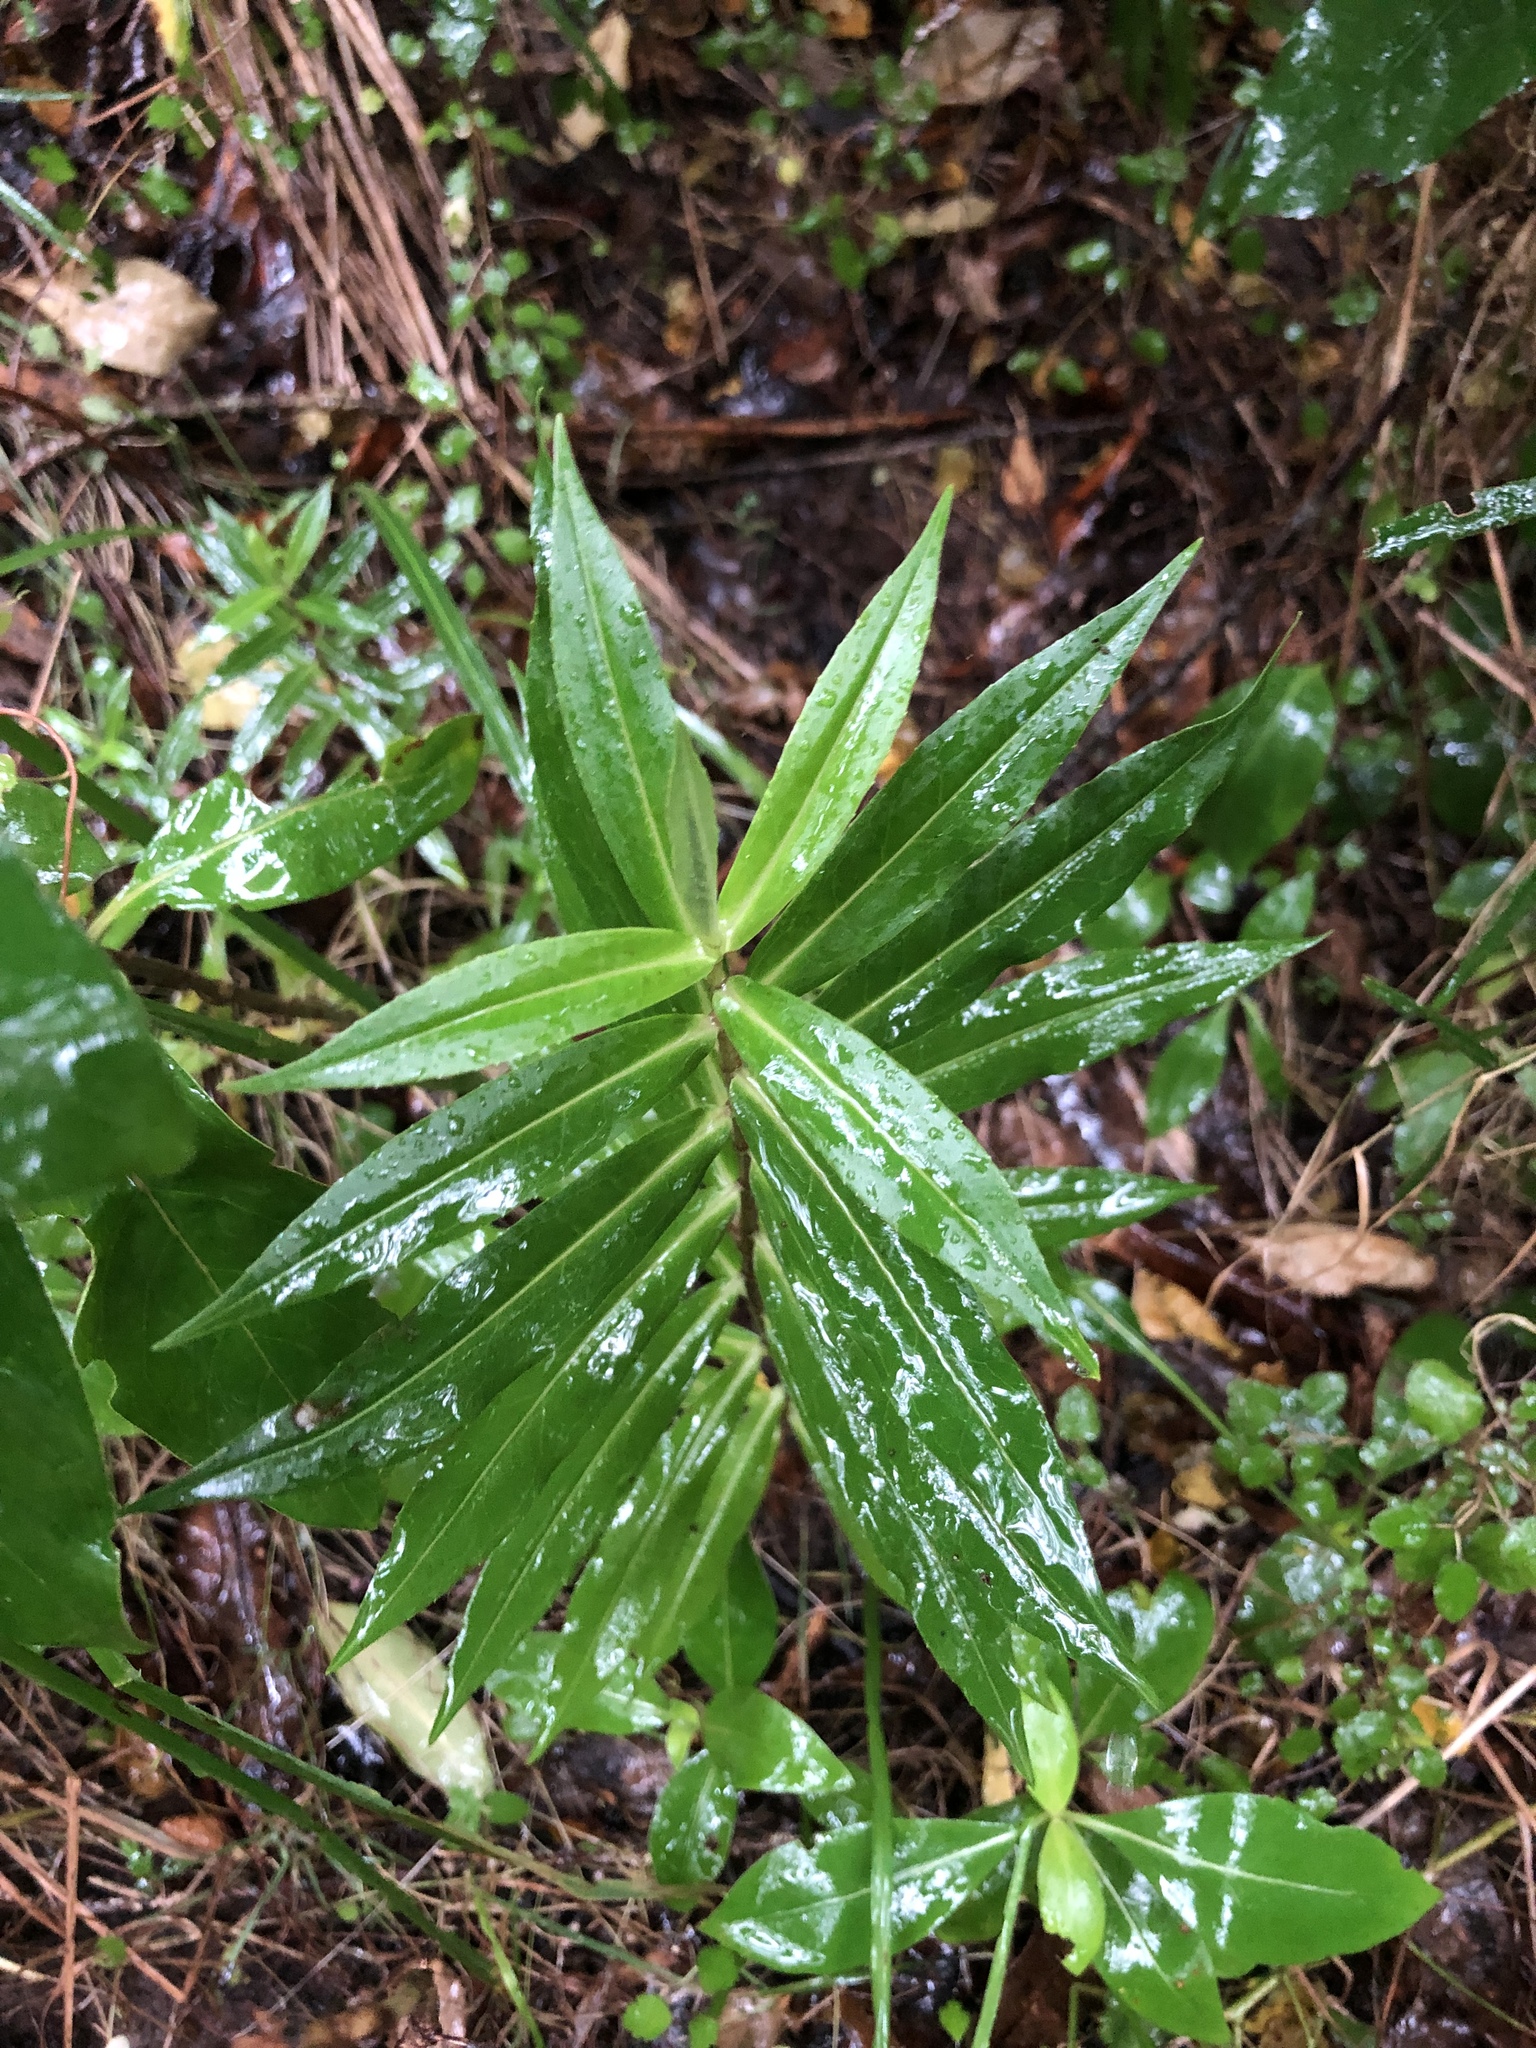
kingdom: Plantae
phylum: Tracheophyta
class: Magnoliopsida
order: Lamiales
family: Plantaginaceae
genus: Veronica
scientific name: Veronica salicifolia
